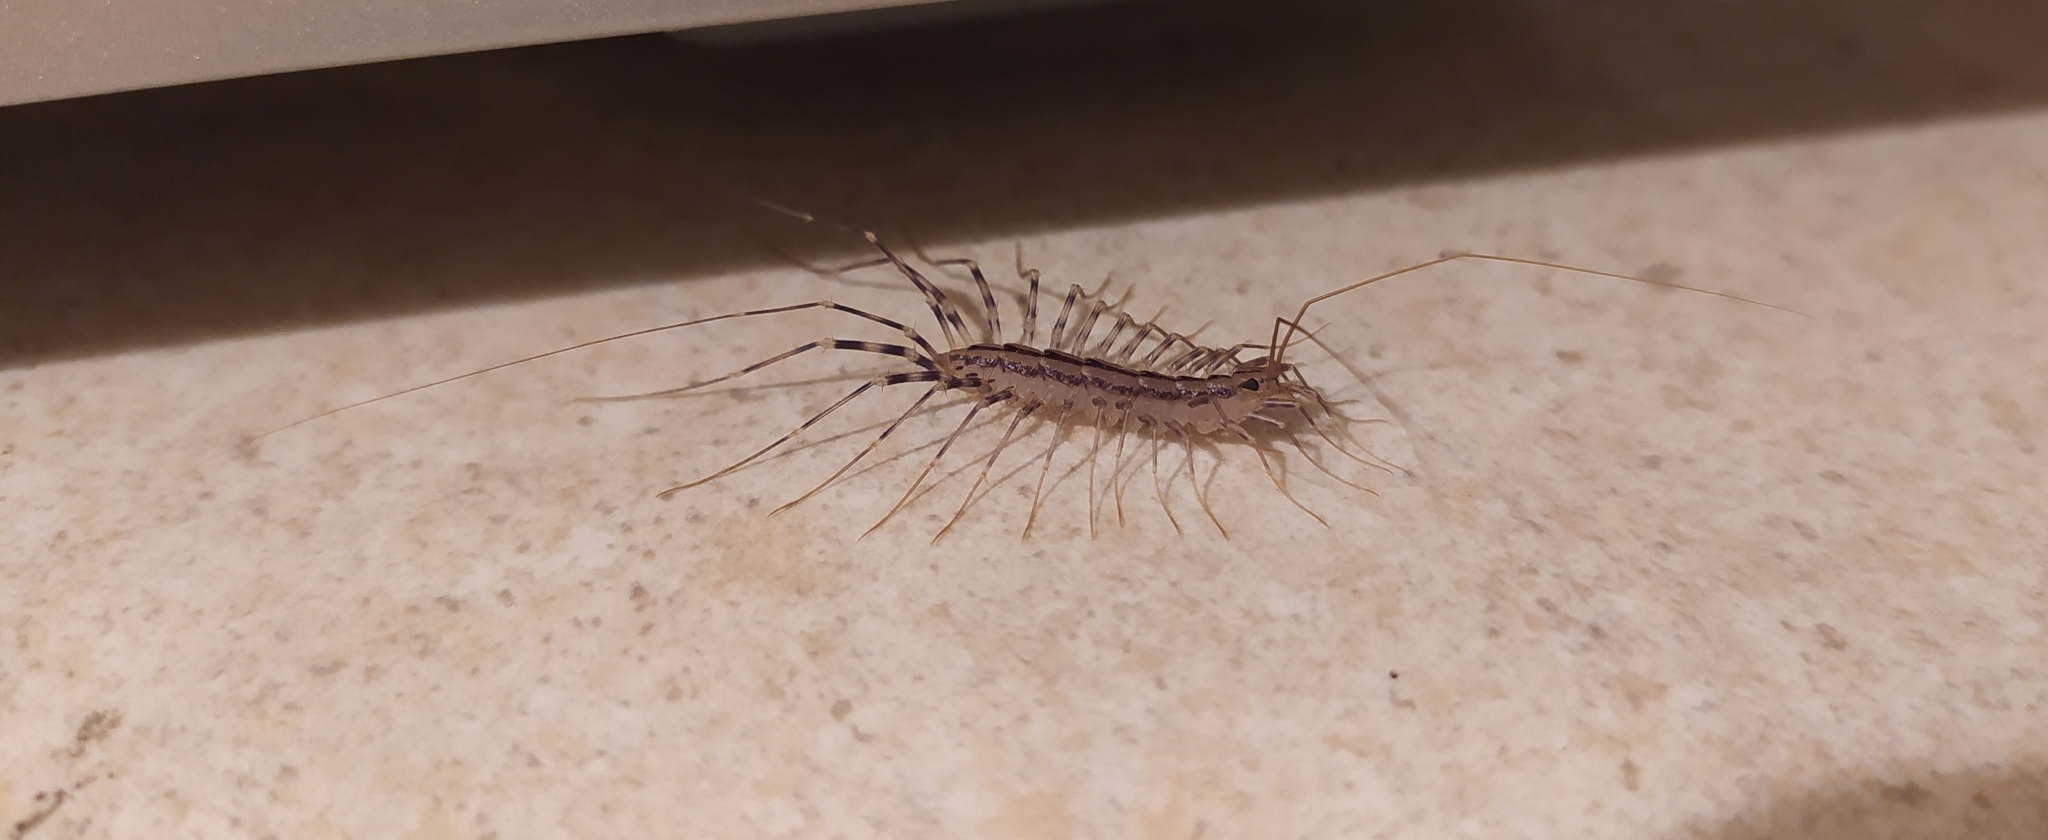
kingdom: Animalia
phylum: Arthropoda
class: Chilopoda
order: Scutigeromorpha
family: Scutigeridae
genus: Scutigera
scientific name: Scutigera coleoptrata
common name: House centipede
